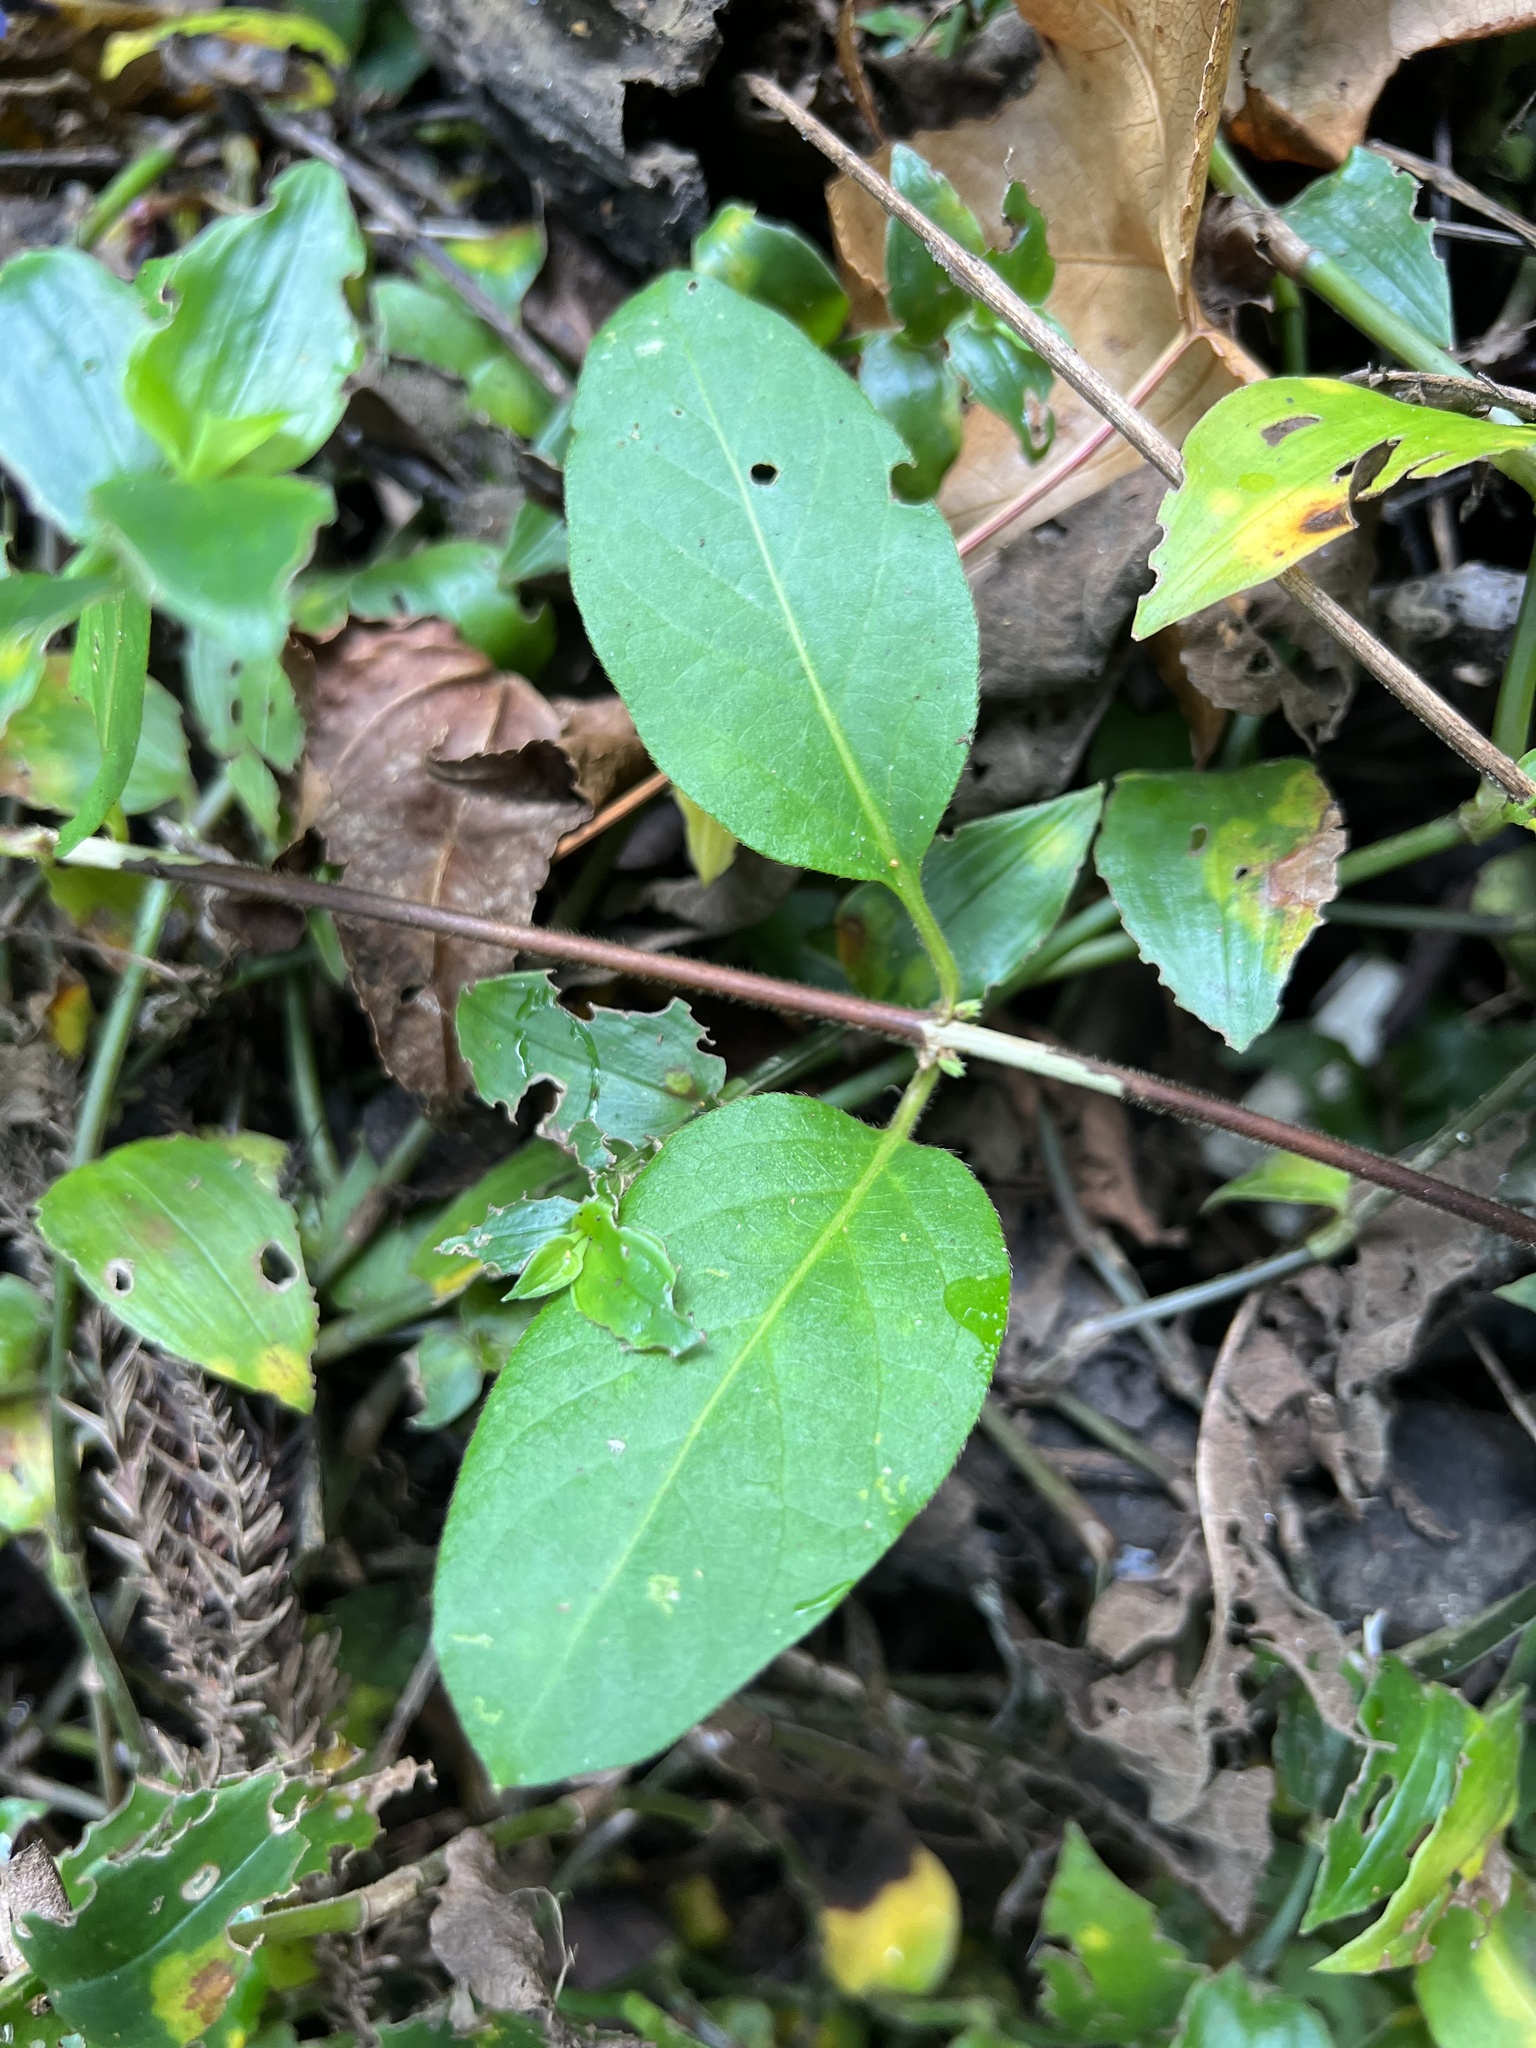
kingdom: Plantae
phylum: Tracheophyta
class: Magnoliopsida
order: Dipsacales
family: Caprifoliaceae
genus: Lonicera
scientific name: Lonicera japonica
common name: Japanese honeysuckle
